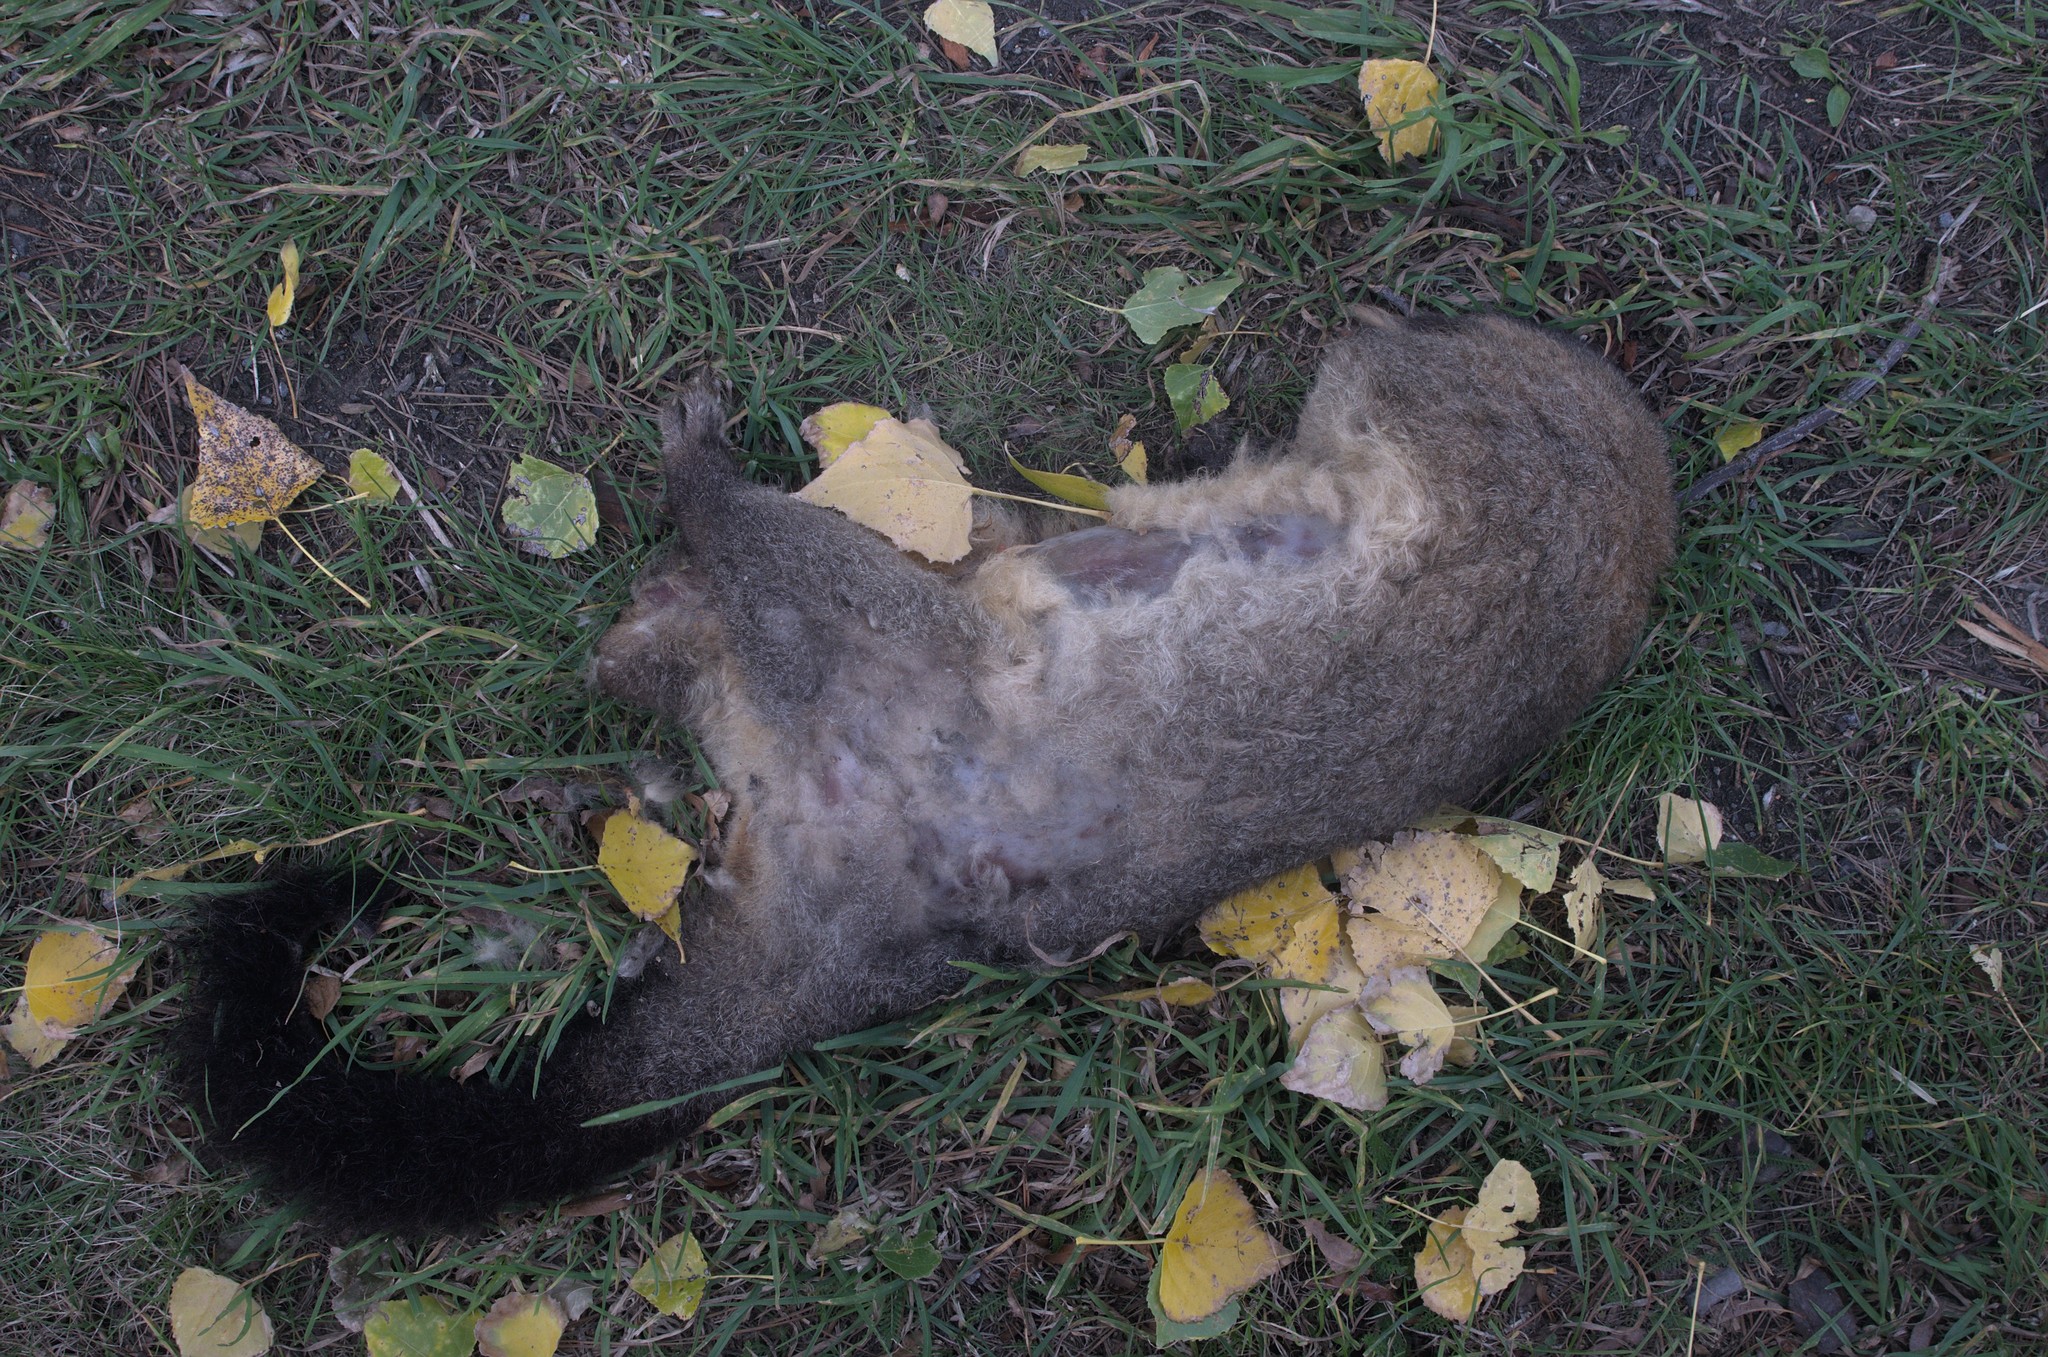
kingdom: Animalia
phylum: Chordata
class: Mammalia
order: Diprotodontia
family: Phalangeridae
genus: Trichosurus
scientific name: Trichosurus vulpecula
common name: Common brushtail
